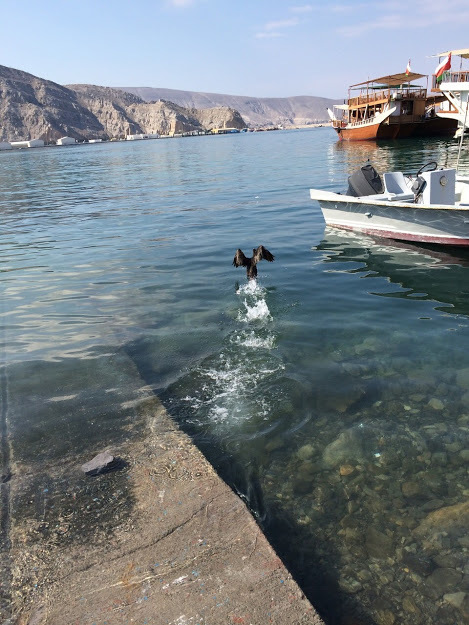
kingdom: Animalia
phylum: Chordata
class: Aves
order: Suliformes
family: Phalacrocoracidae
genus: Phalacrocorax
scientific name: Phalacrocorax nigrogularis
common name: Socotra cormorant
